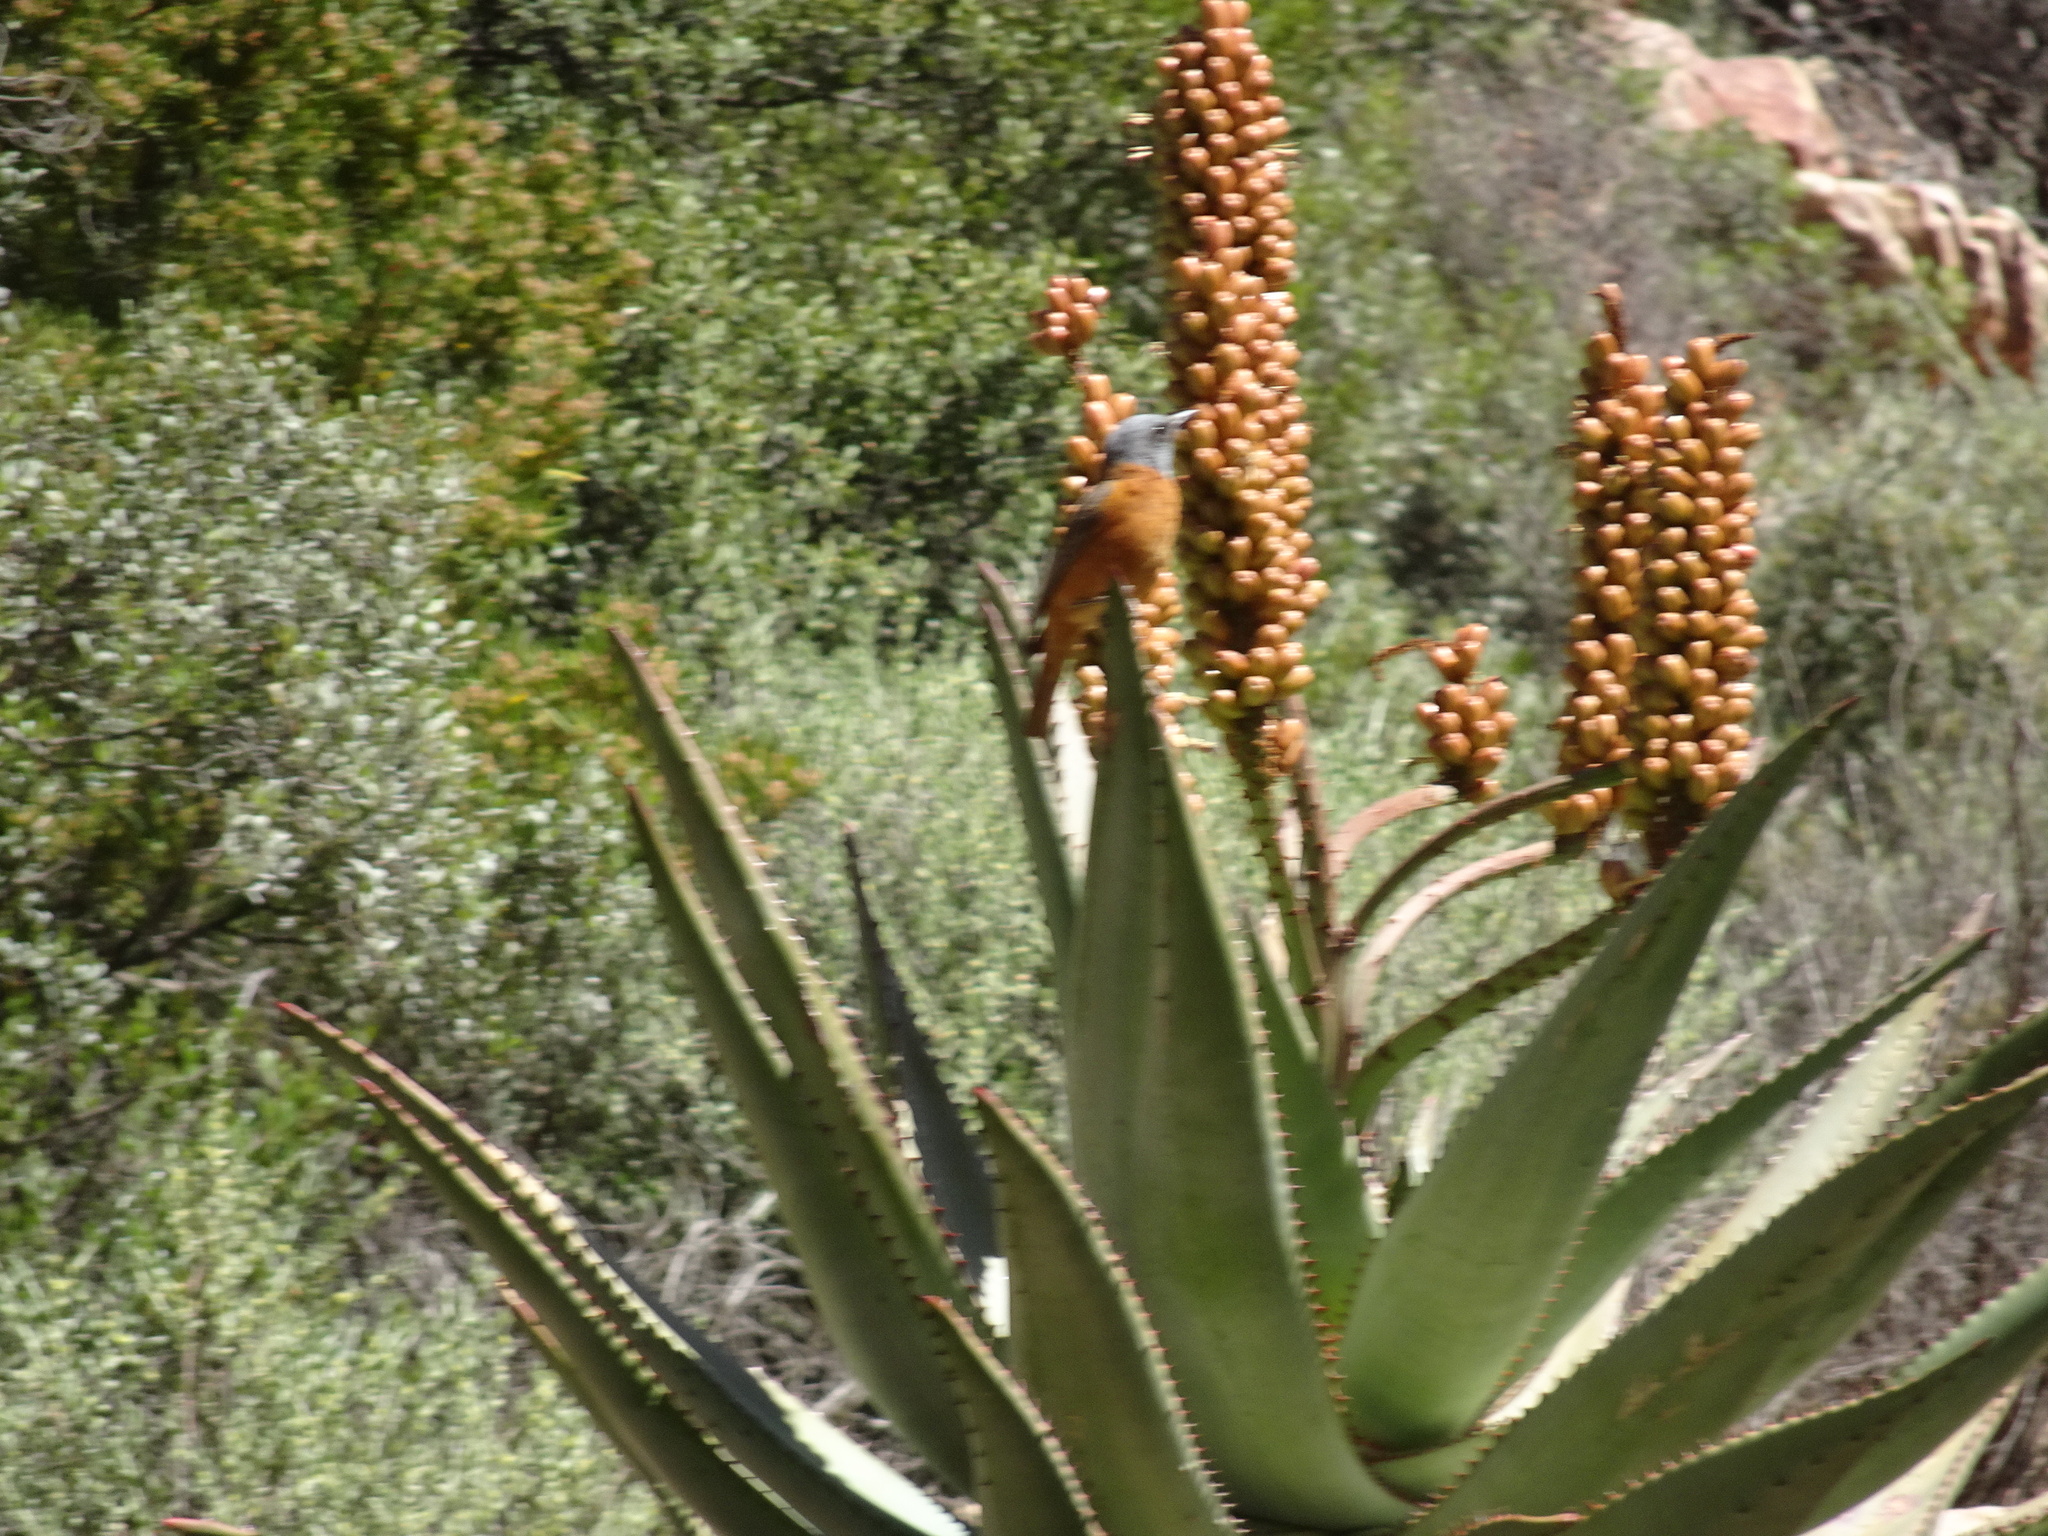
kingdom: Animalia
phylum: Chordata
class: Aves
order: Passeriformes
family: Muscicapidae
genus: Monticola
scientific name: Monticola rupestris
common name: Cape rock thrush
